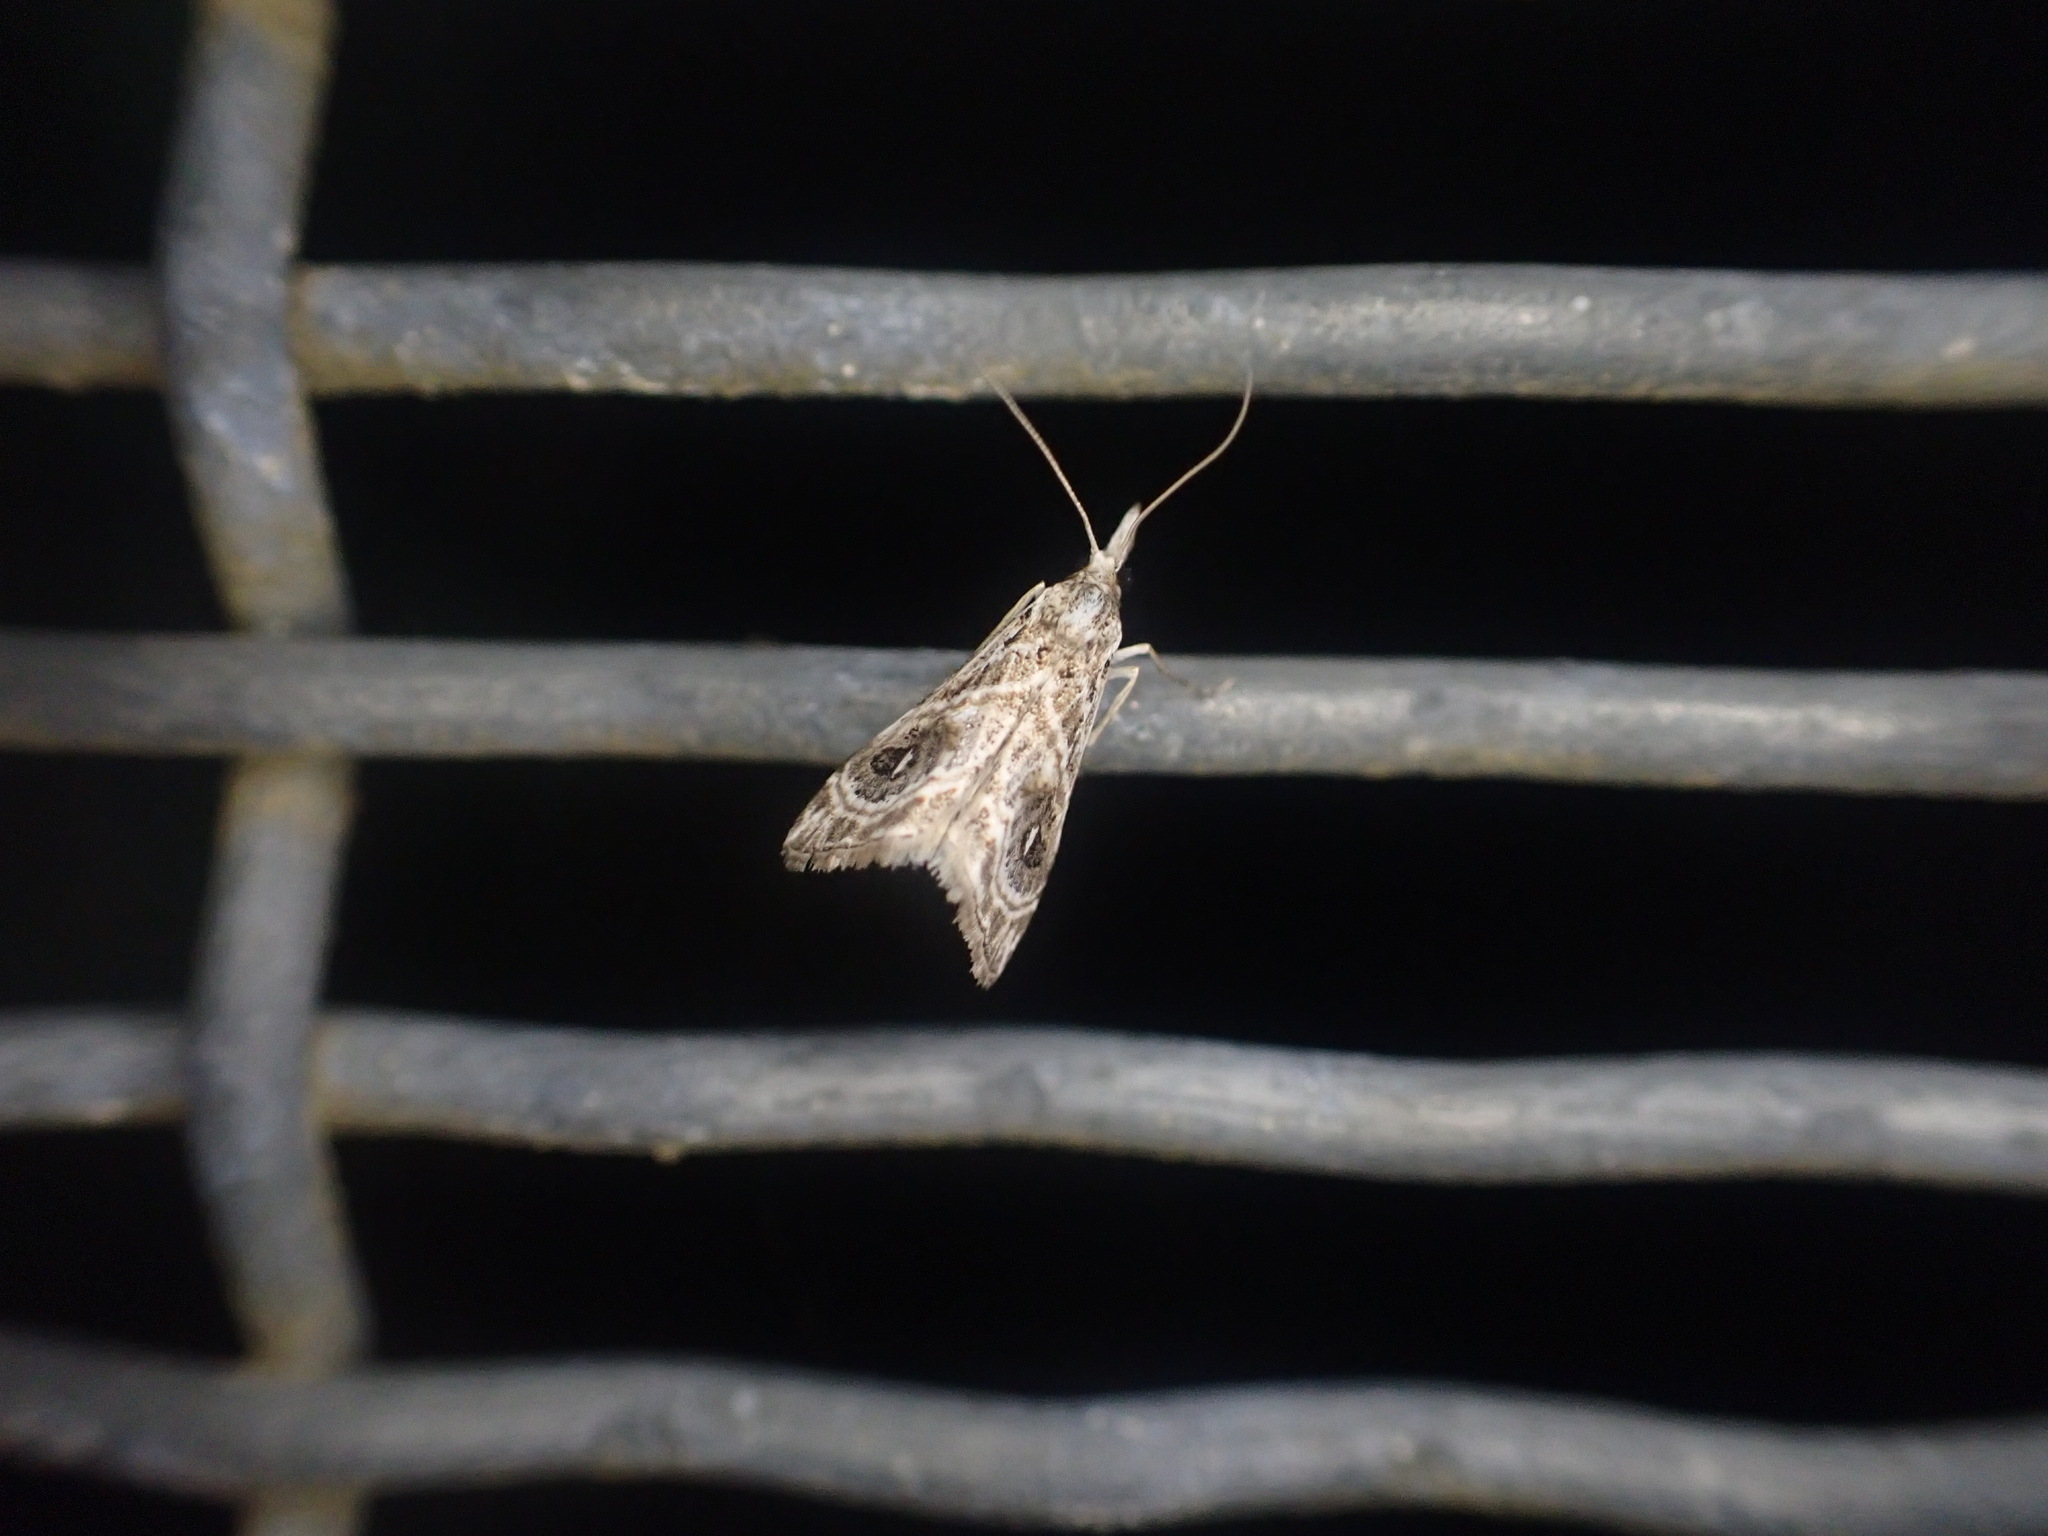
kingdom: Animalia
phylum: Arthropoda
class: Insecta
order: Lepidoptera
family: Crambidae
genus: Gadira
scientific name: Gadira acerella
